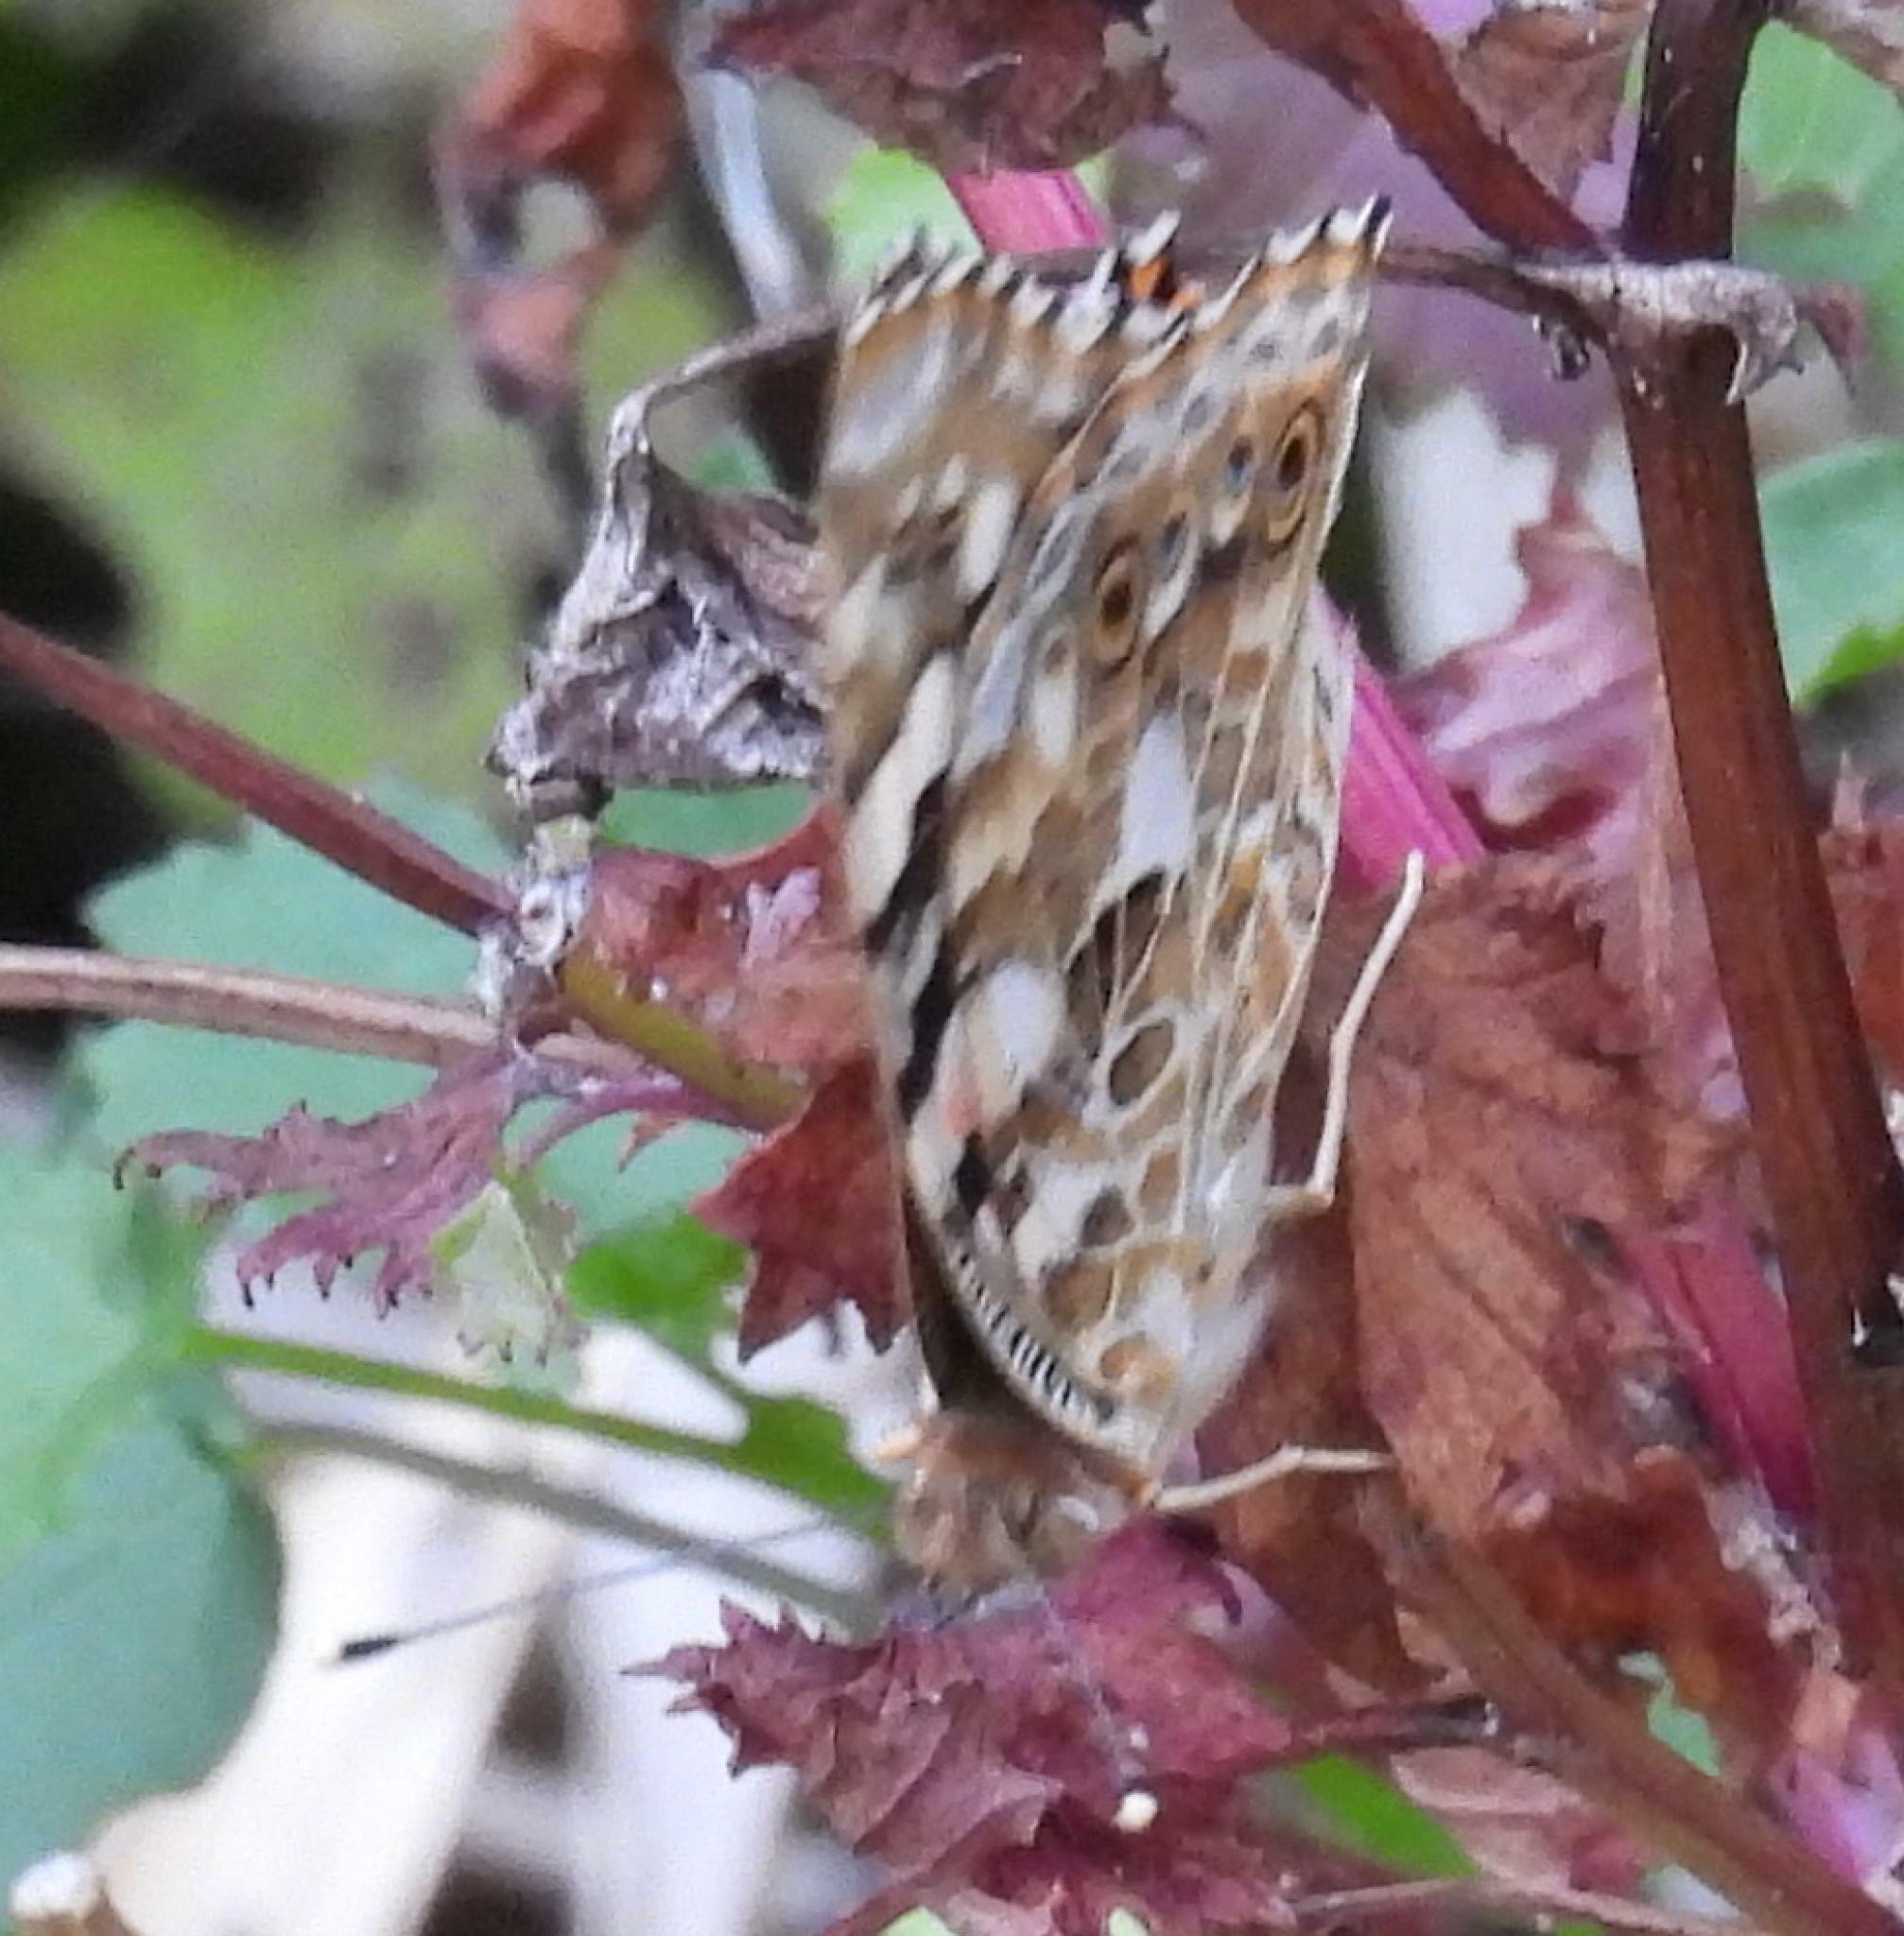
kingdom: Animalia
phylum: Arthropoda
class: Insecta
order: Lepidoptera
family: Nymphalidae
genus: Vanessa
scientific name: Vanessa cardui
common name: Painted lady
